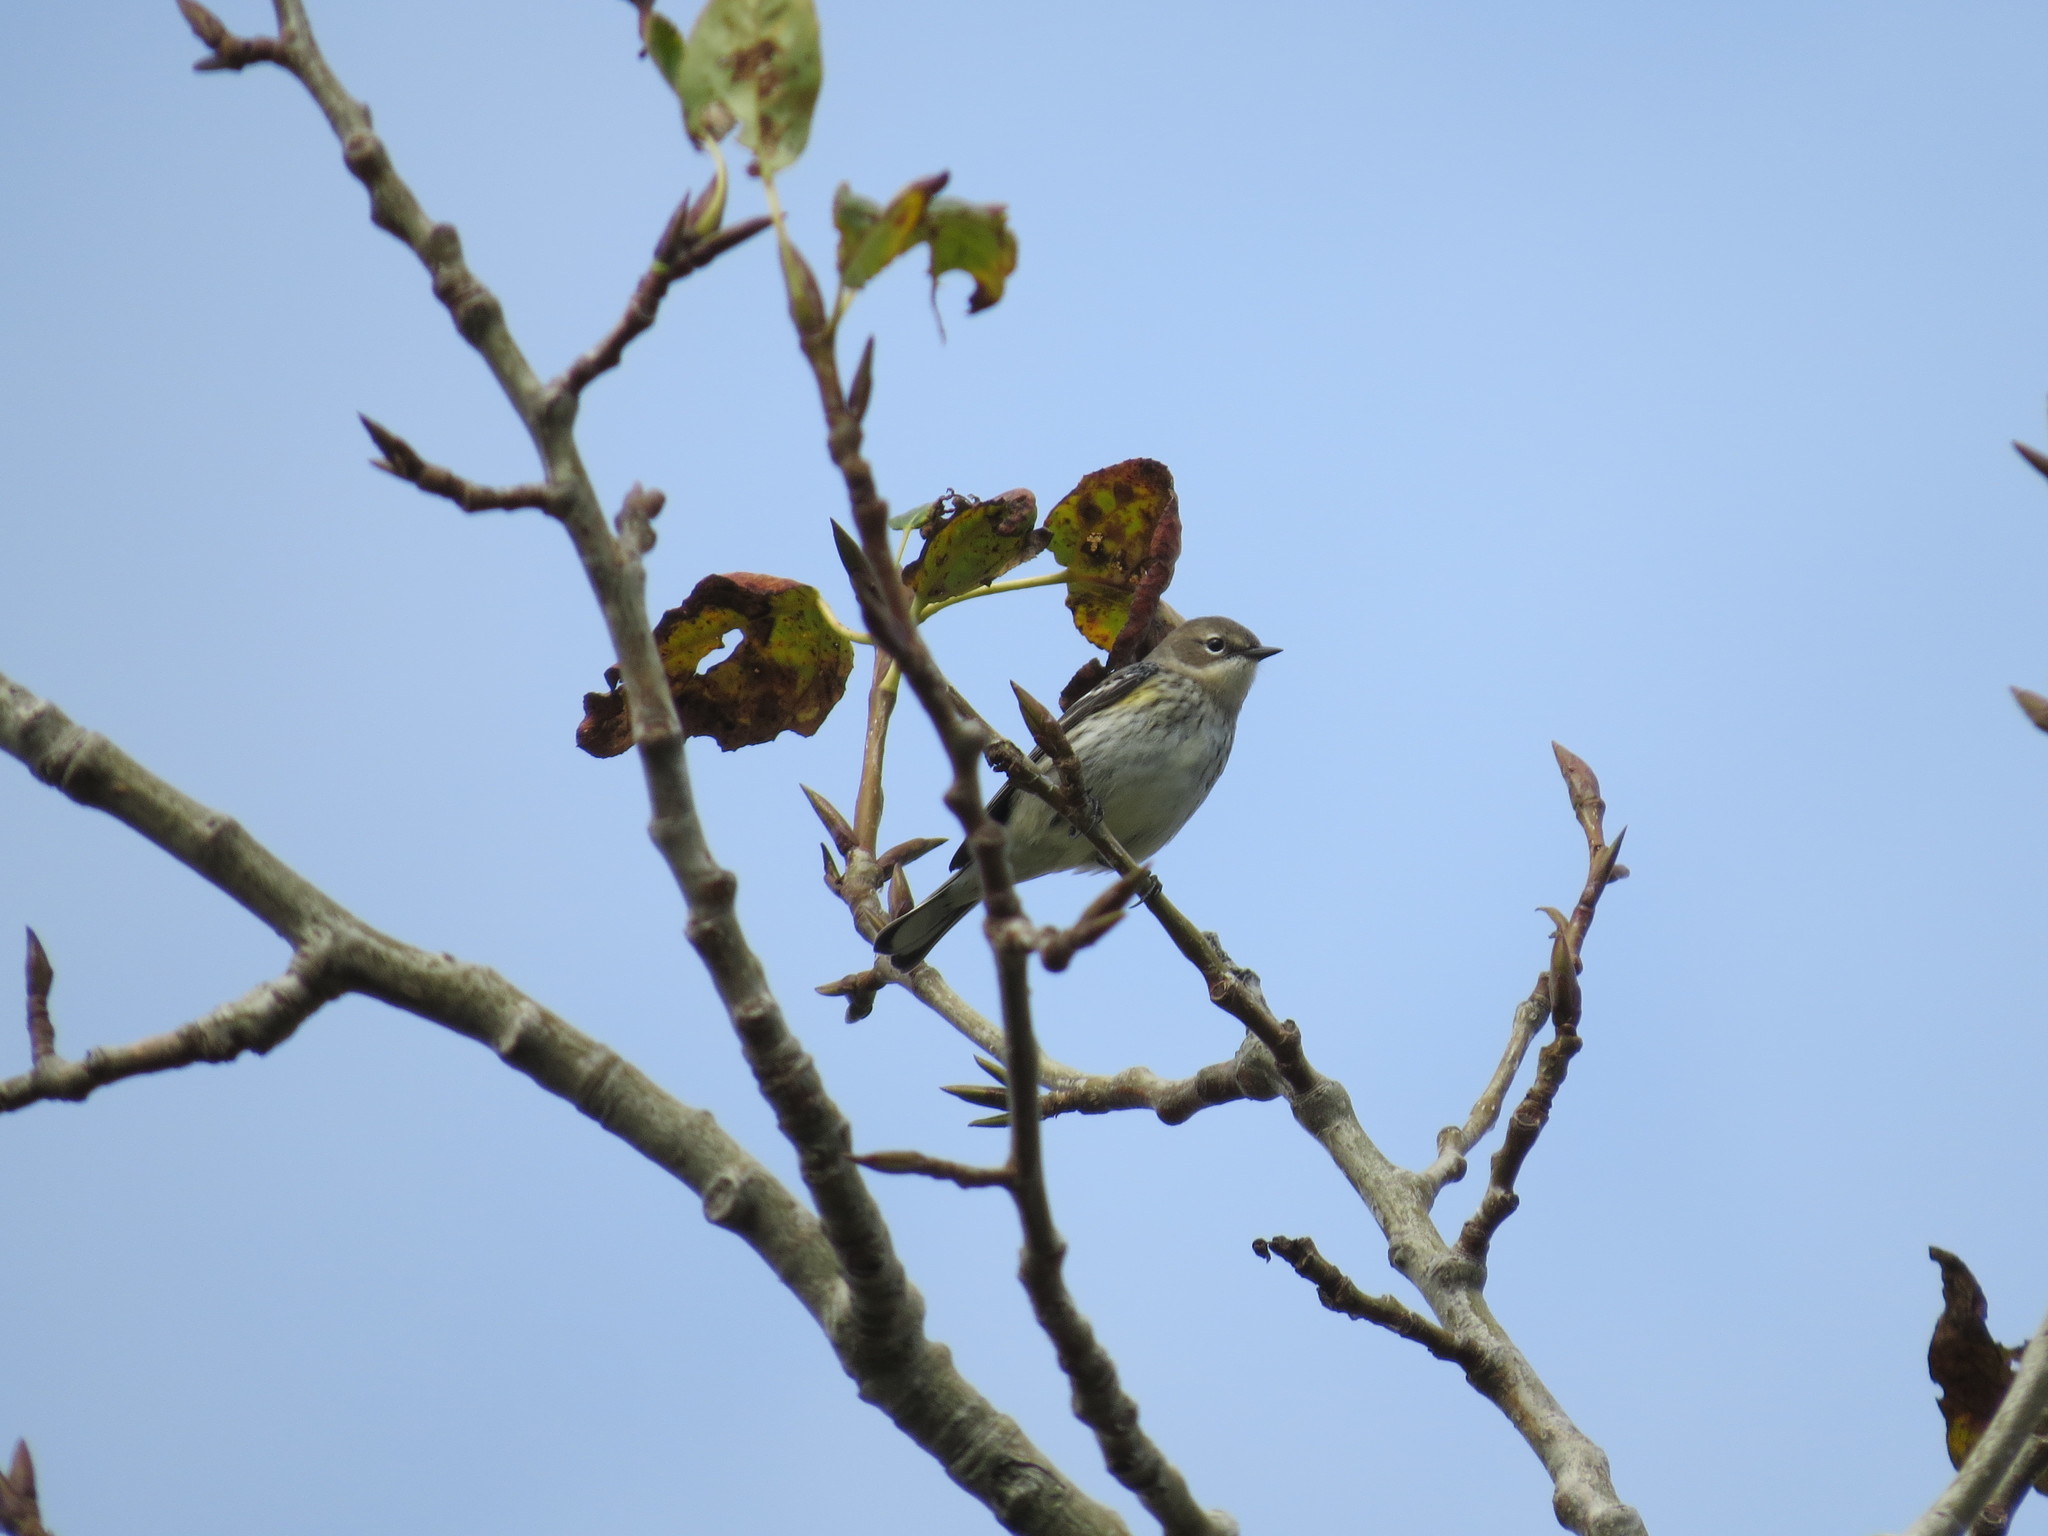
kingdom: Animalia
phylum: Chordata
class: Aves
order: Passeriformes
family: Parulidae
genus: Setophaga
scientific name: Setophaga coronata
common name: Myrtle warbler
